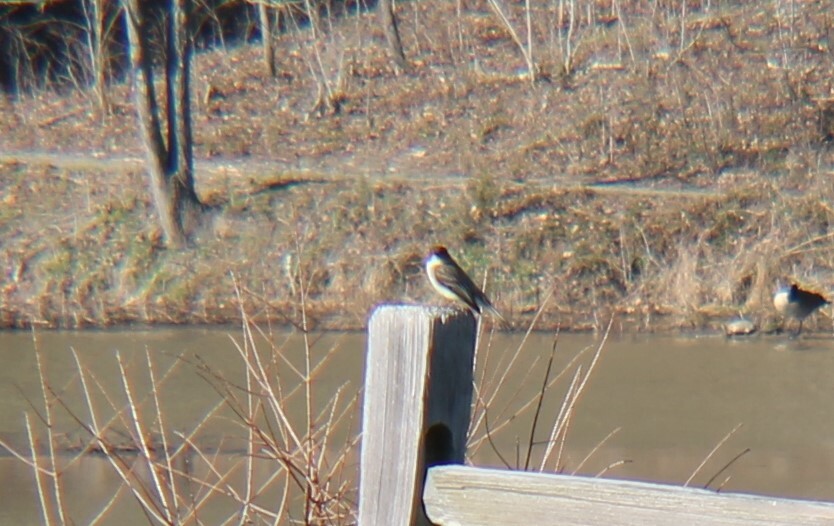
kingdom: Animalia
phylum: Chordata
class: Aves
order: Passeriformes
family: Tyrannidae
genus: Sayornis
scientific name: Sayornis phoebe
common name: Eastern phoebe
